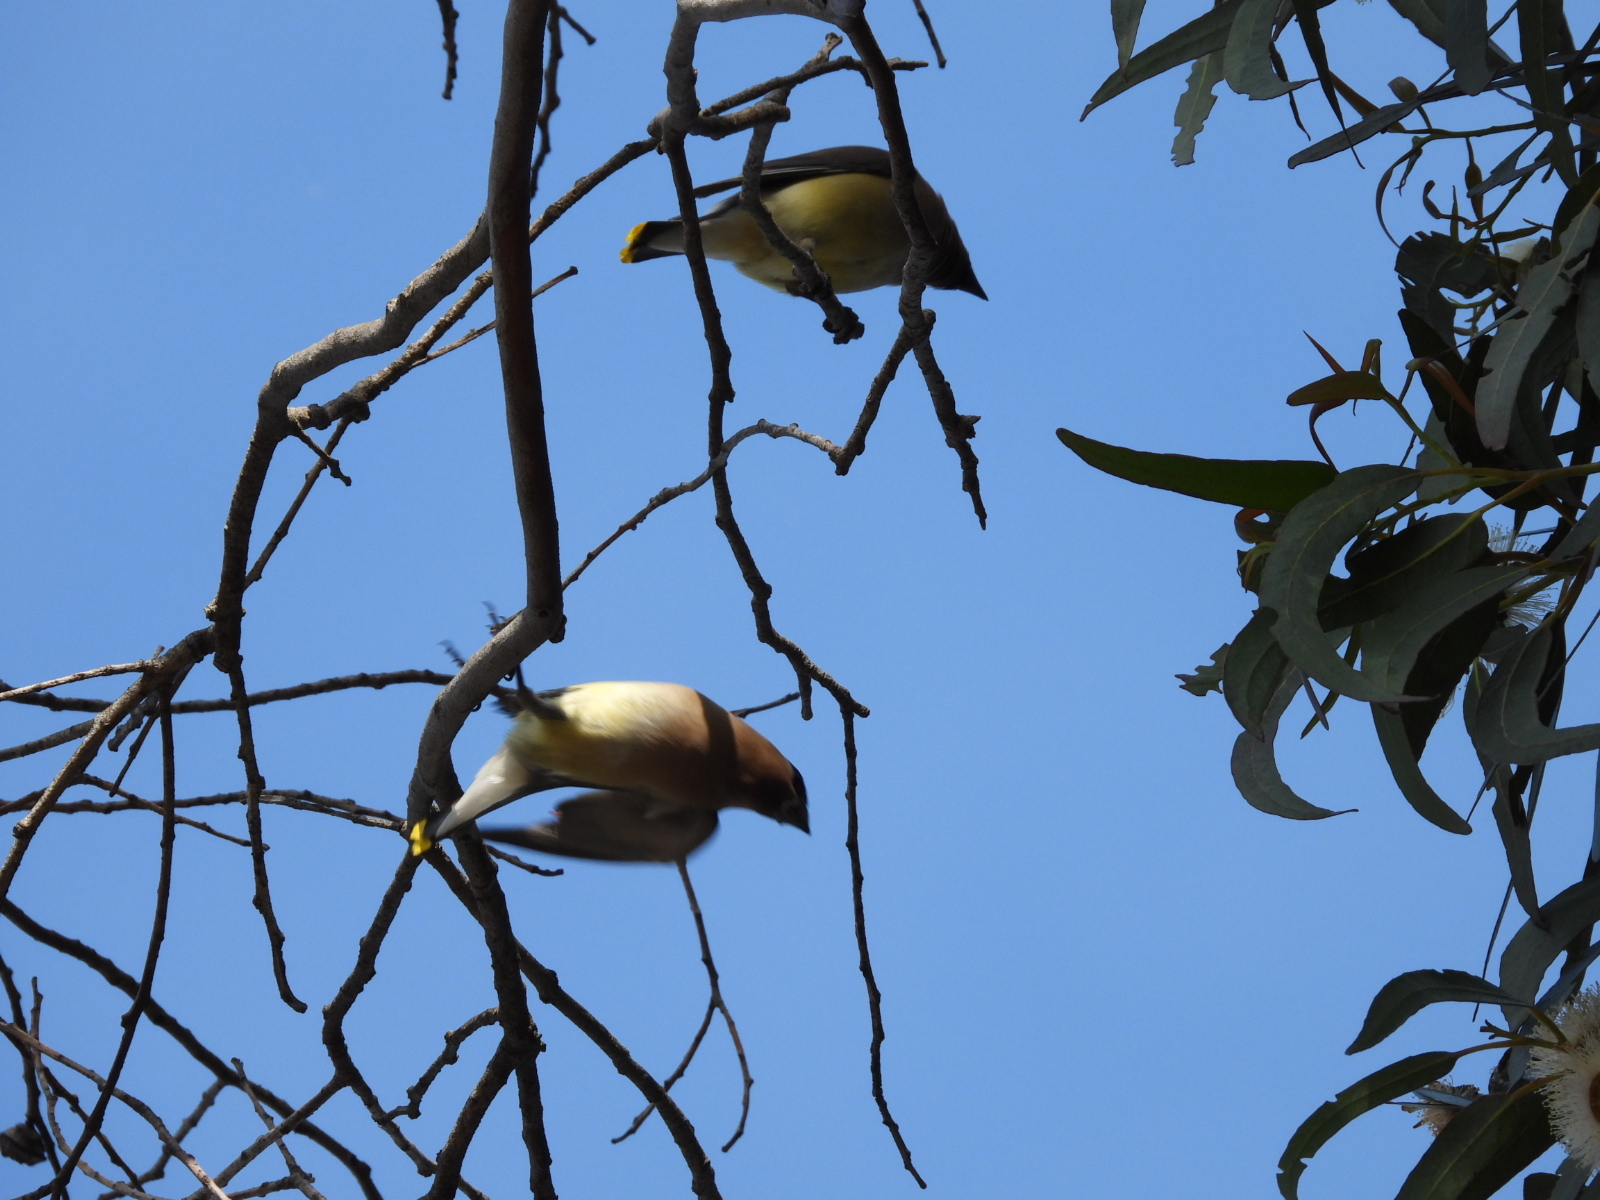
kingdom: Animalia
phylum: Chordata
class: Aves
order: Passeriformes
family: Bombycillidae
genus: Bombycilla
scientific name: Bombycilla cedrorum
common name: Cedar waxwing
